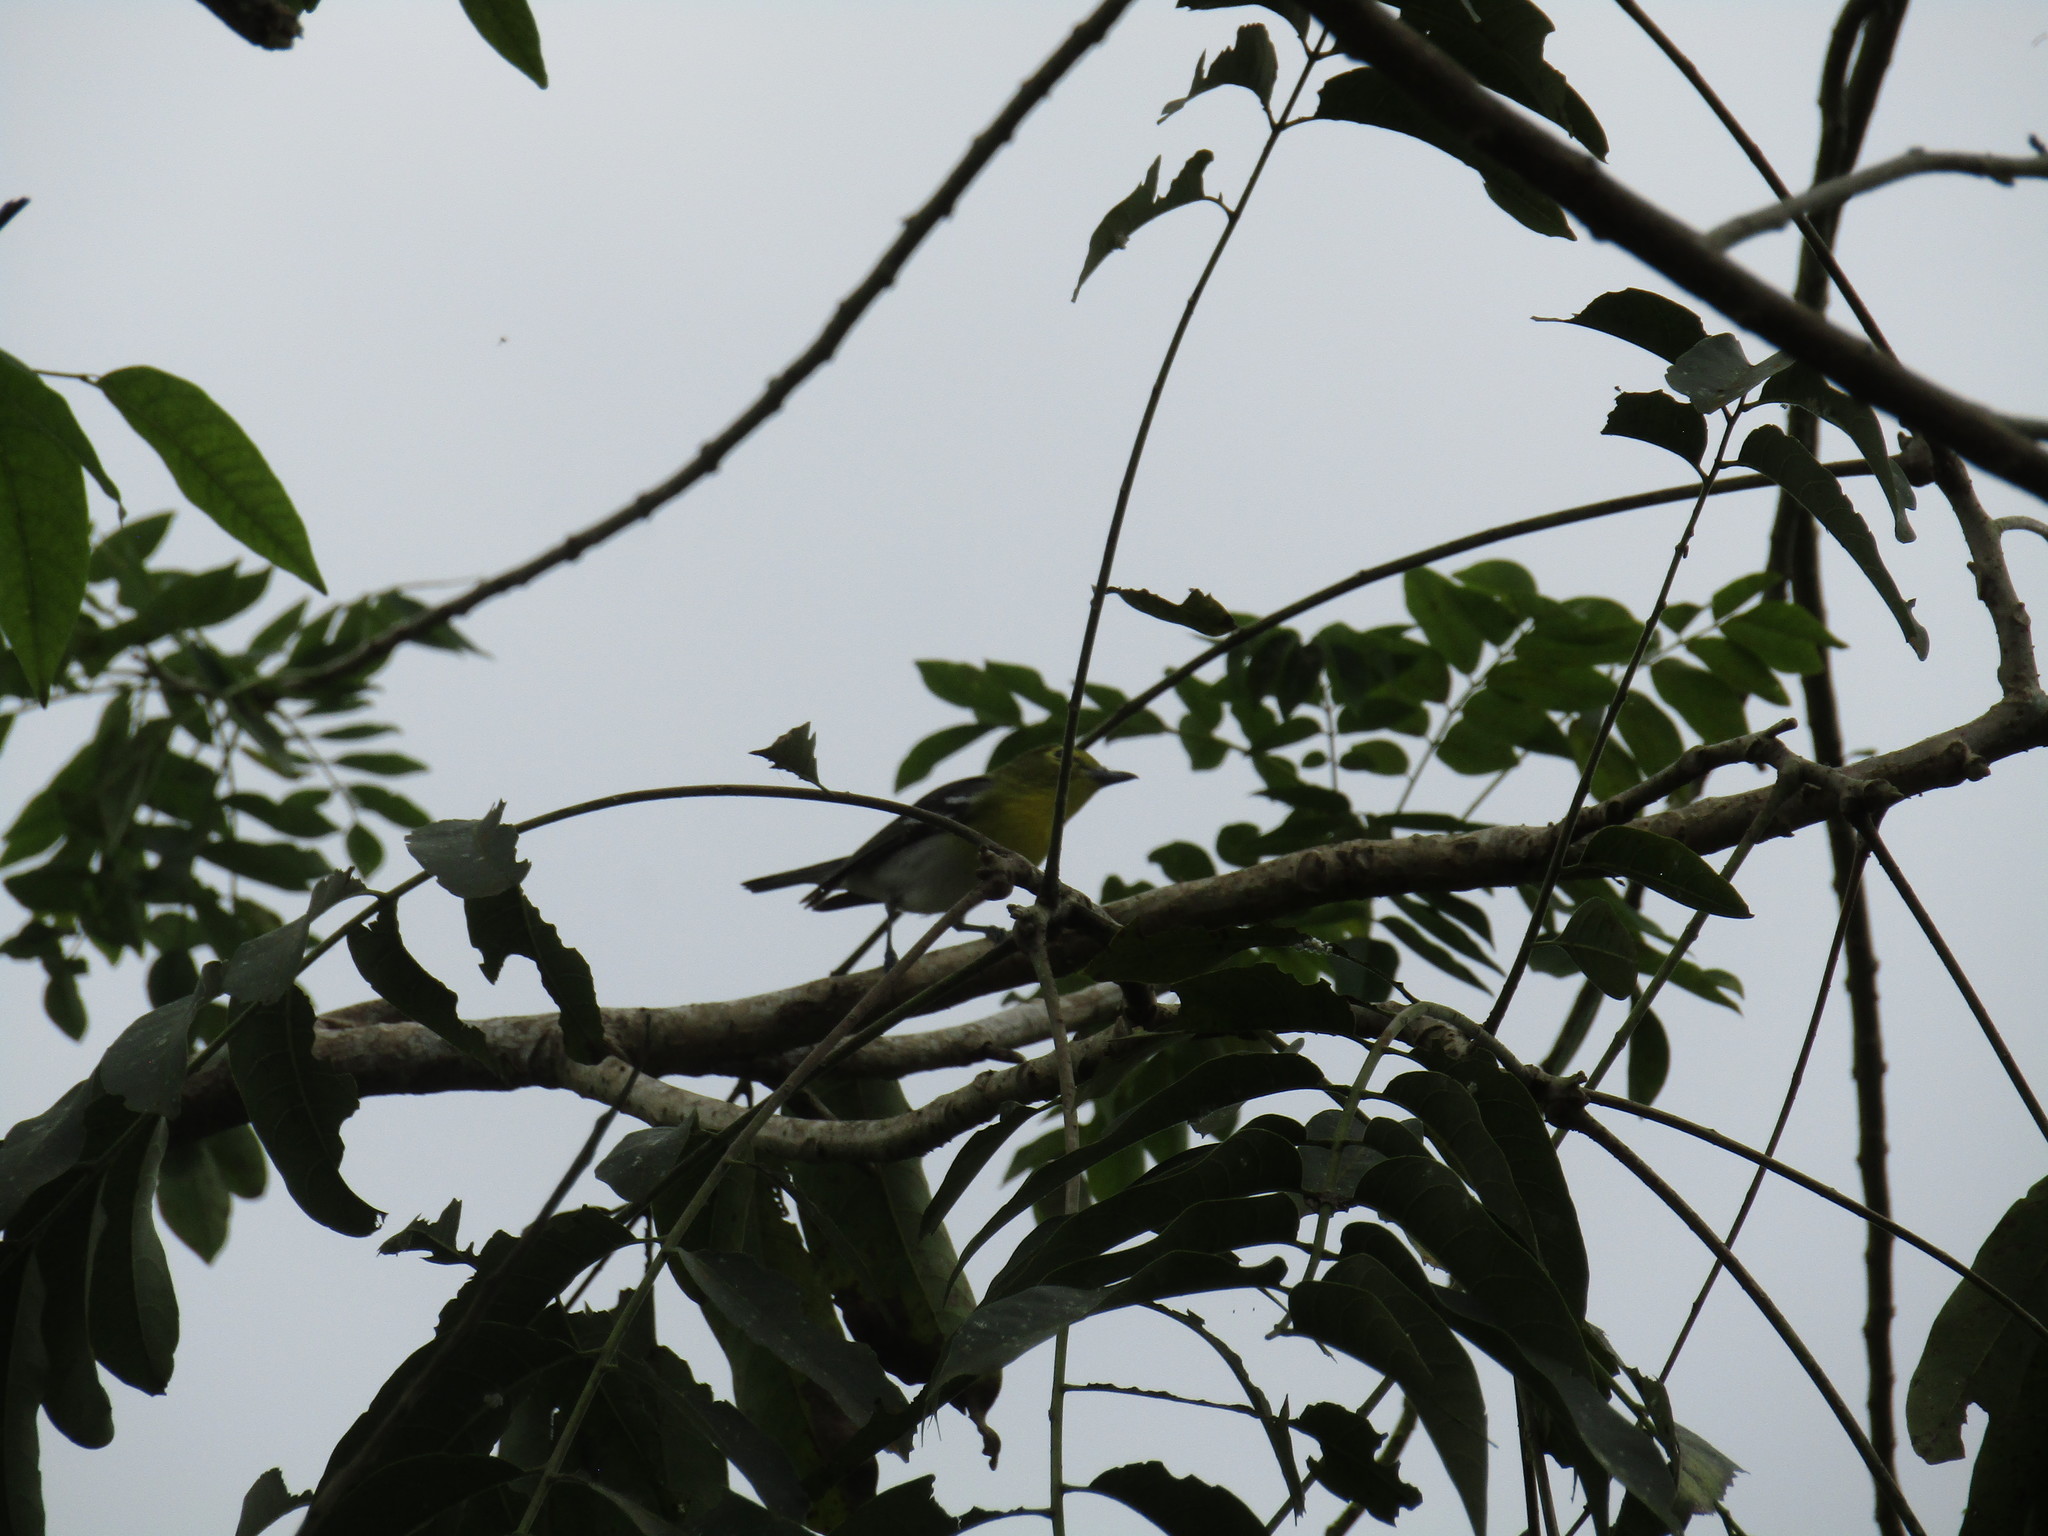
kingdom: Animalia
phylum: Chordata
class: Aves
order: Passeriformes
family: Vireonidae
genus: Vireo
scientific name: Vireo flavifrons
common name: Yellow-throated vireo
